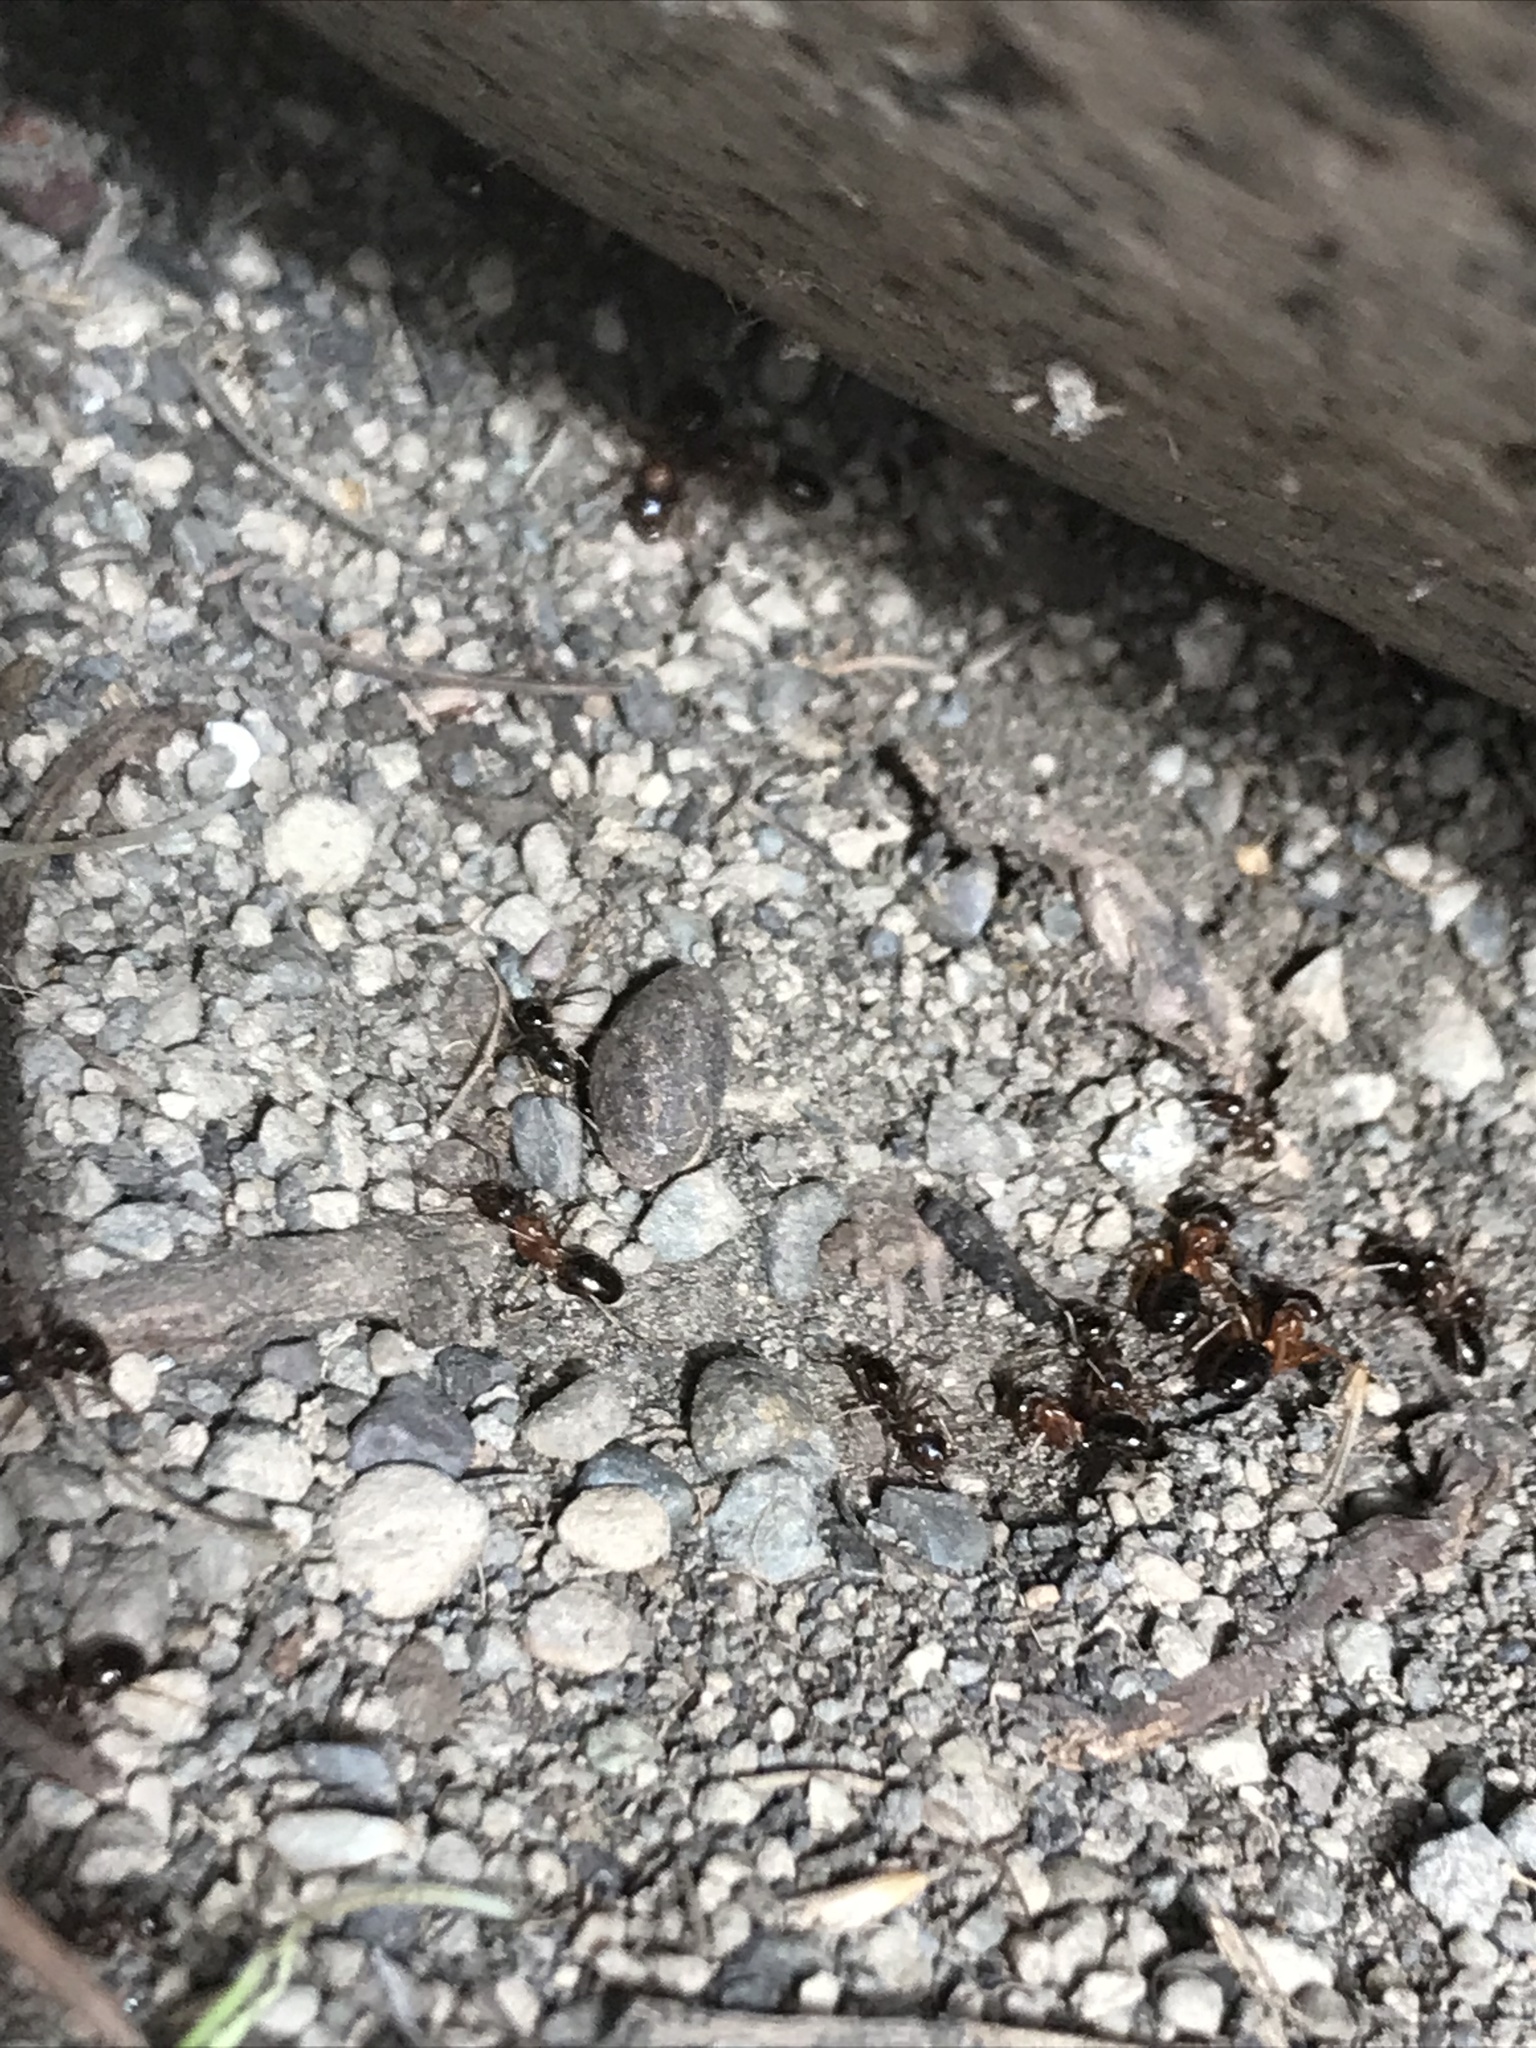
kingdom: Animalia
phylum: Arthropoda
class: Insecta
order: Hymenoptera
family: Formicidae
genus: Formica
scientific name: Formica subpolita
